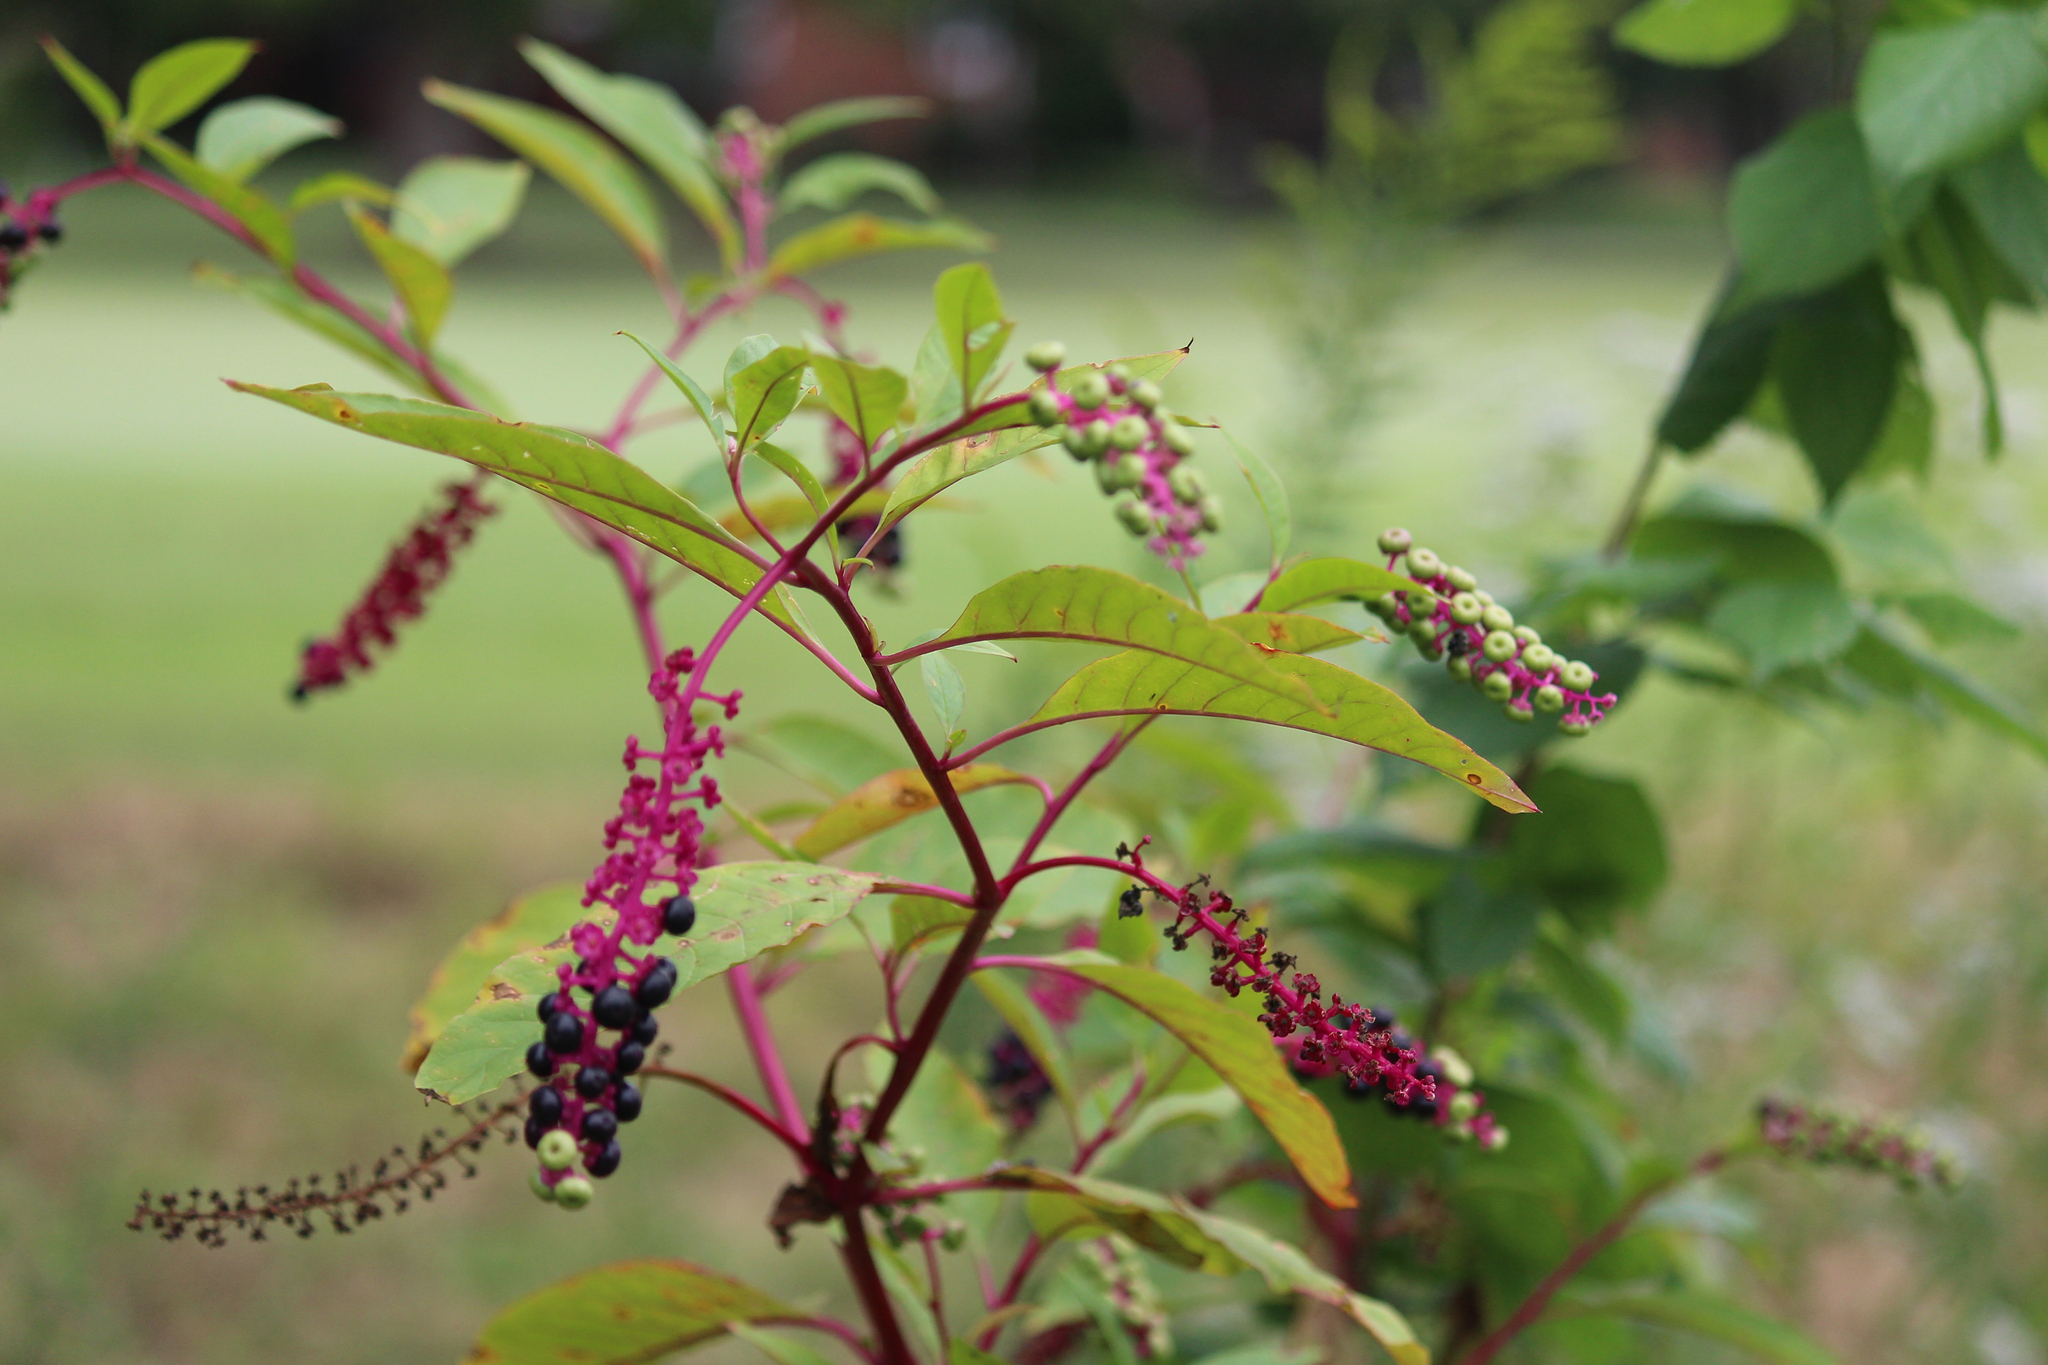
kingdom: Plantae
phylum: Tracheophyta
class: Magnoliopsida
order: Caryophyllales
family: Phytolaccaceae
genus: Phytolacca
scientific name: Phytolacca americana
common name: American pokeweed
